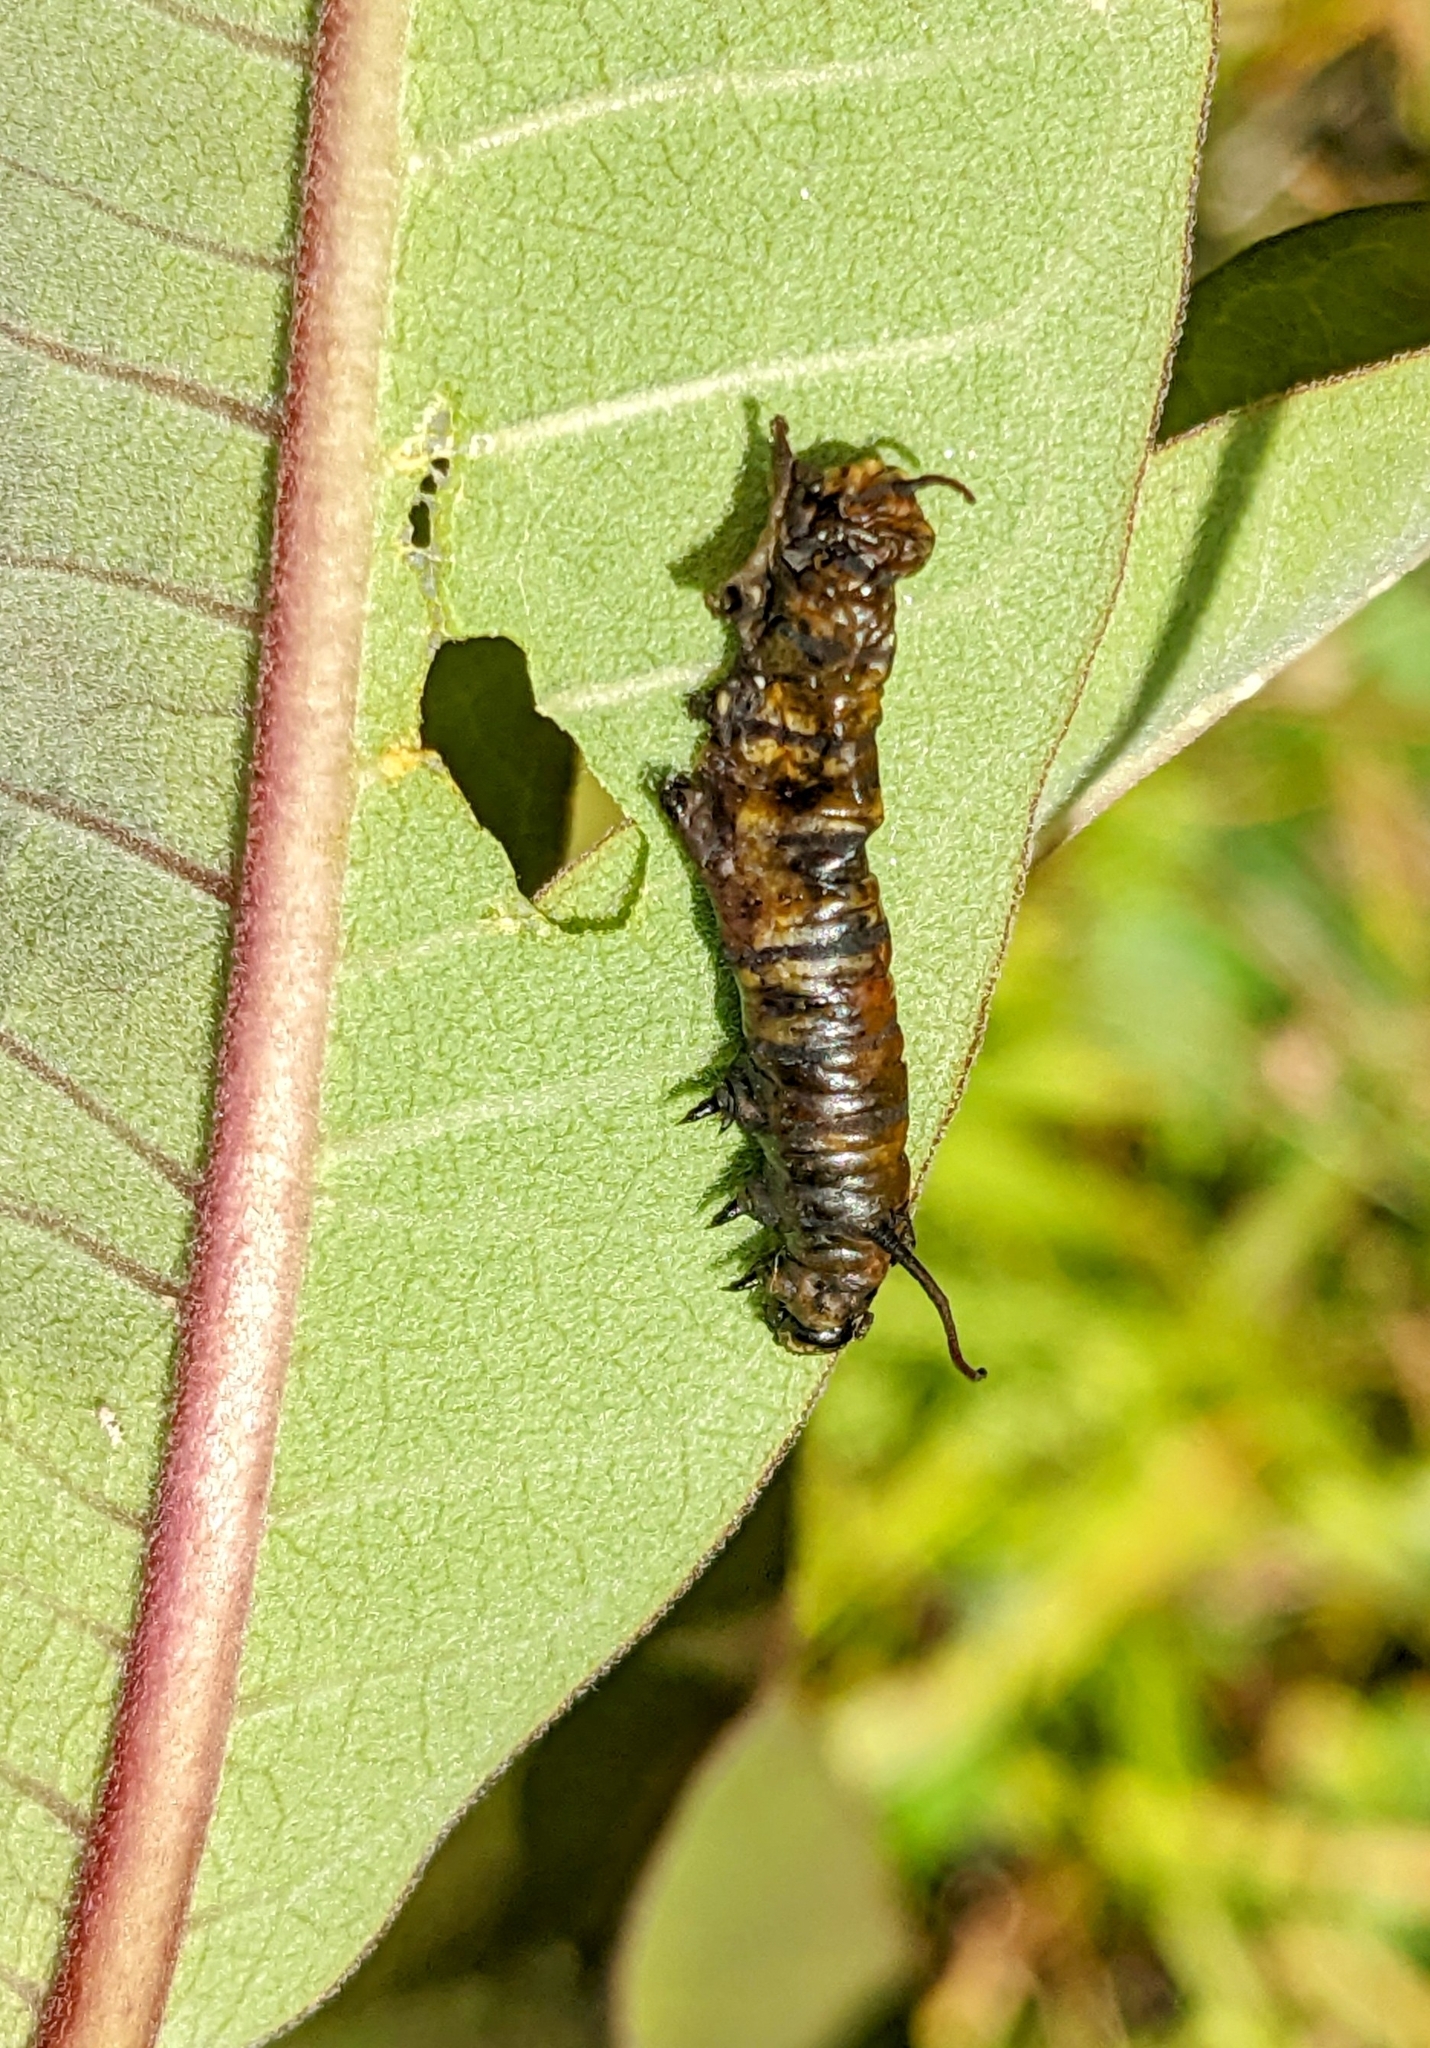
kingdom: Animalia
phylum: Arthropoda
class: Insecta
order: Lepidoptera
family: Nymphalidae
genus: Danaus
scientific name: Danaus plexippus
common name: Monarch
